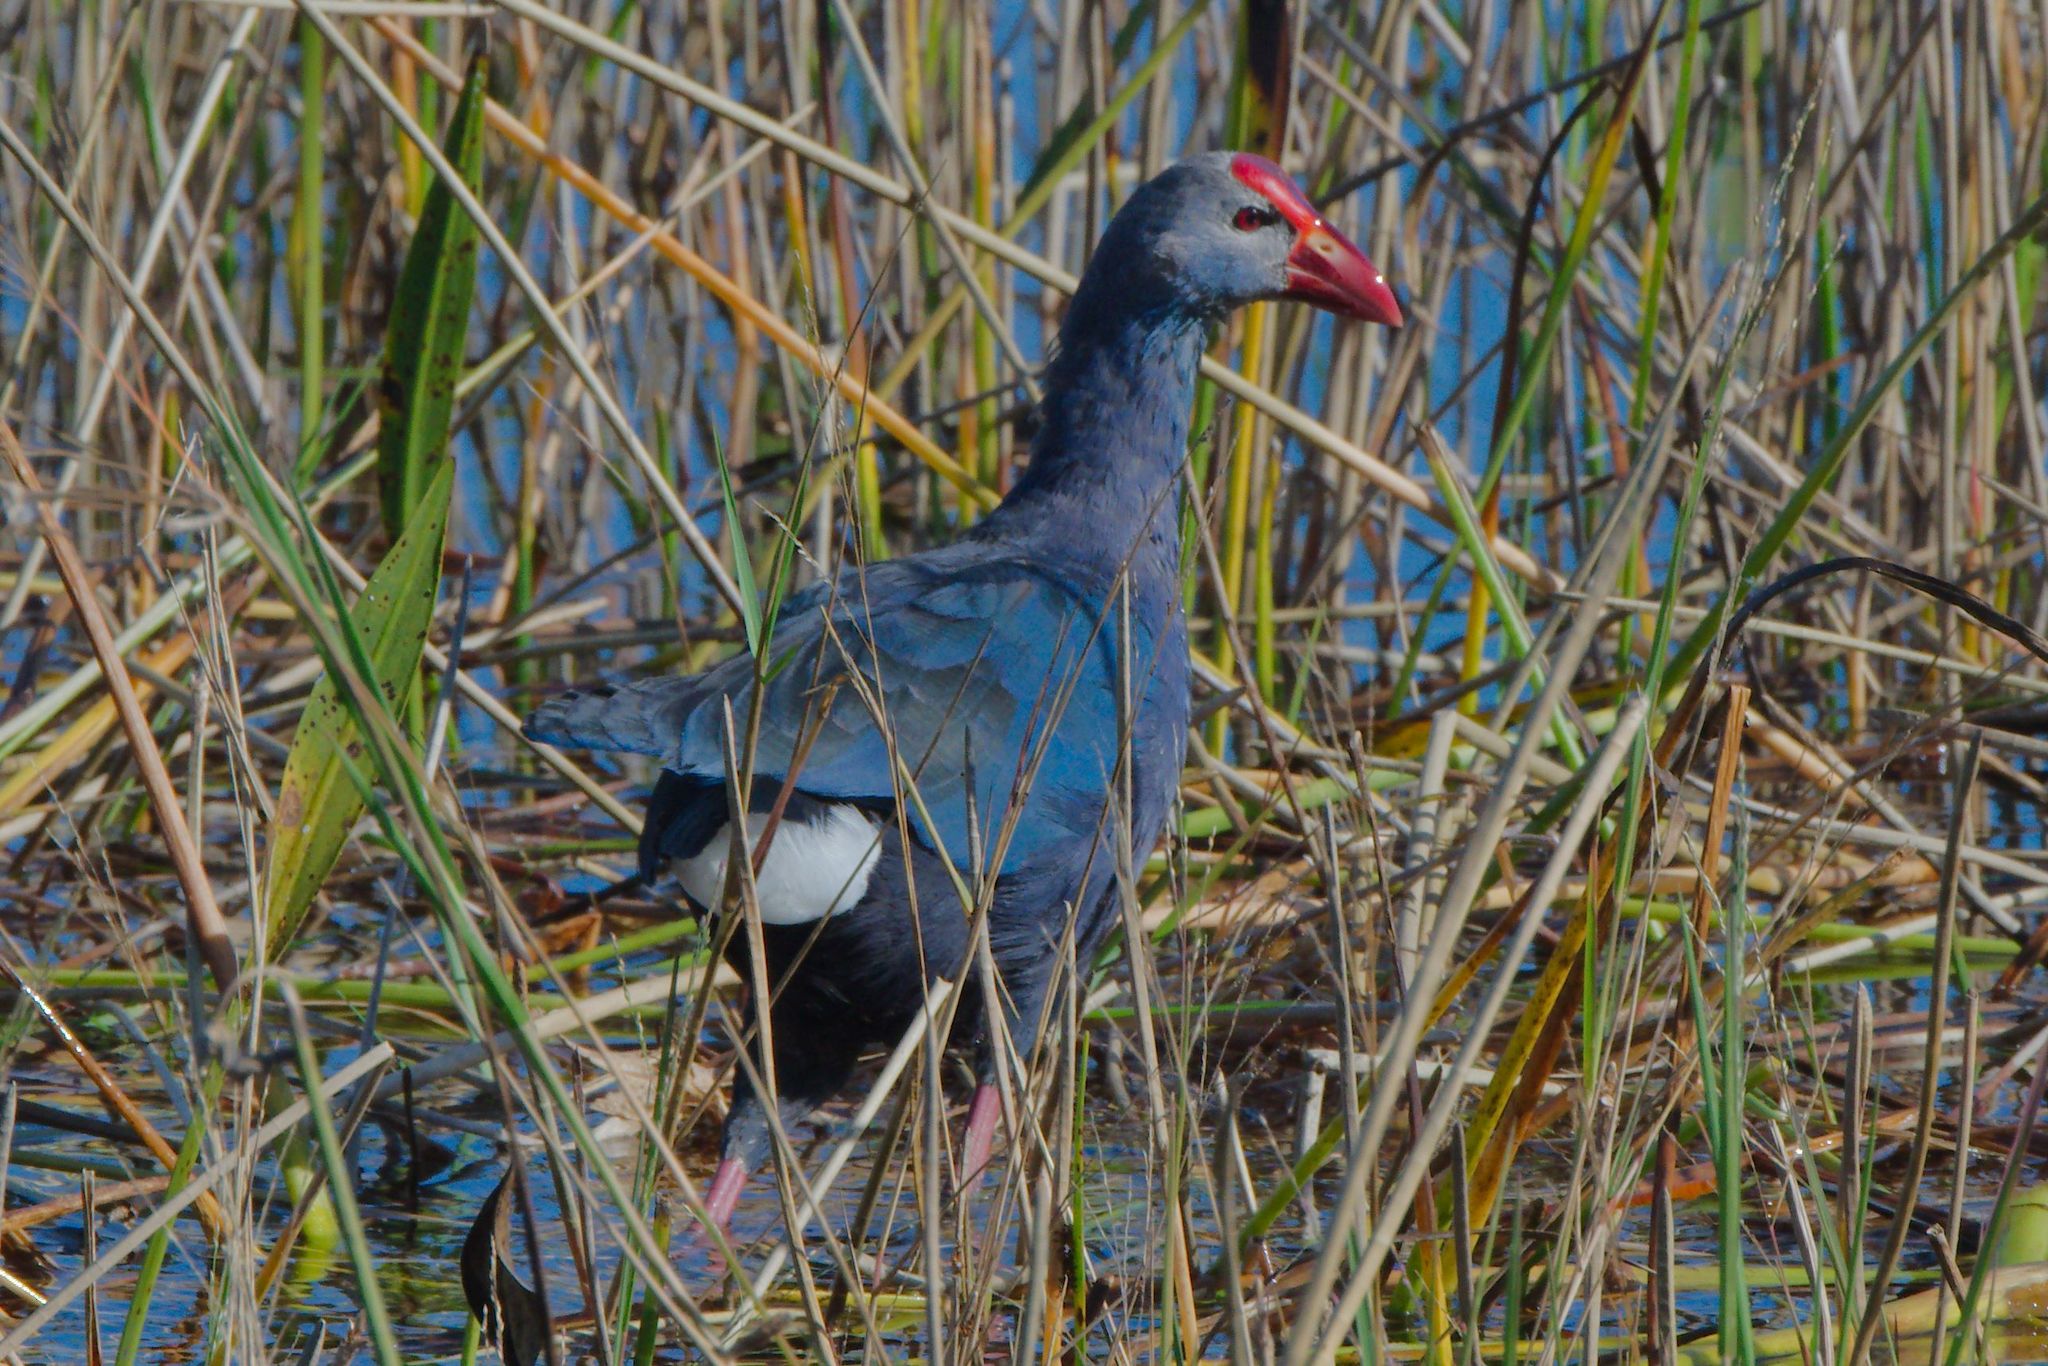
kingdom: Animalia
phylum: Chordata
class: Aves
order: Gruiformes
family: Rallidae
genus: Porphyrio
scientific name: Porphyrio porphyrio
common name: Purple swamphen
